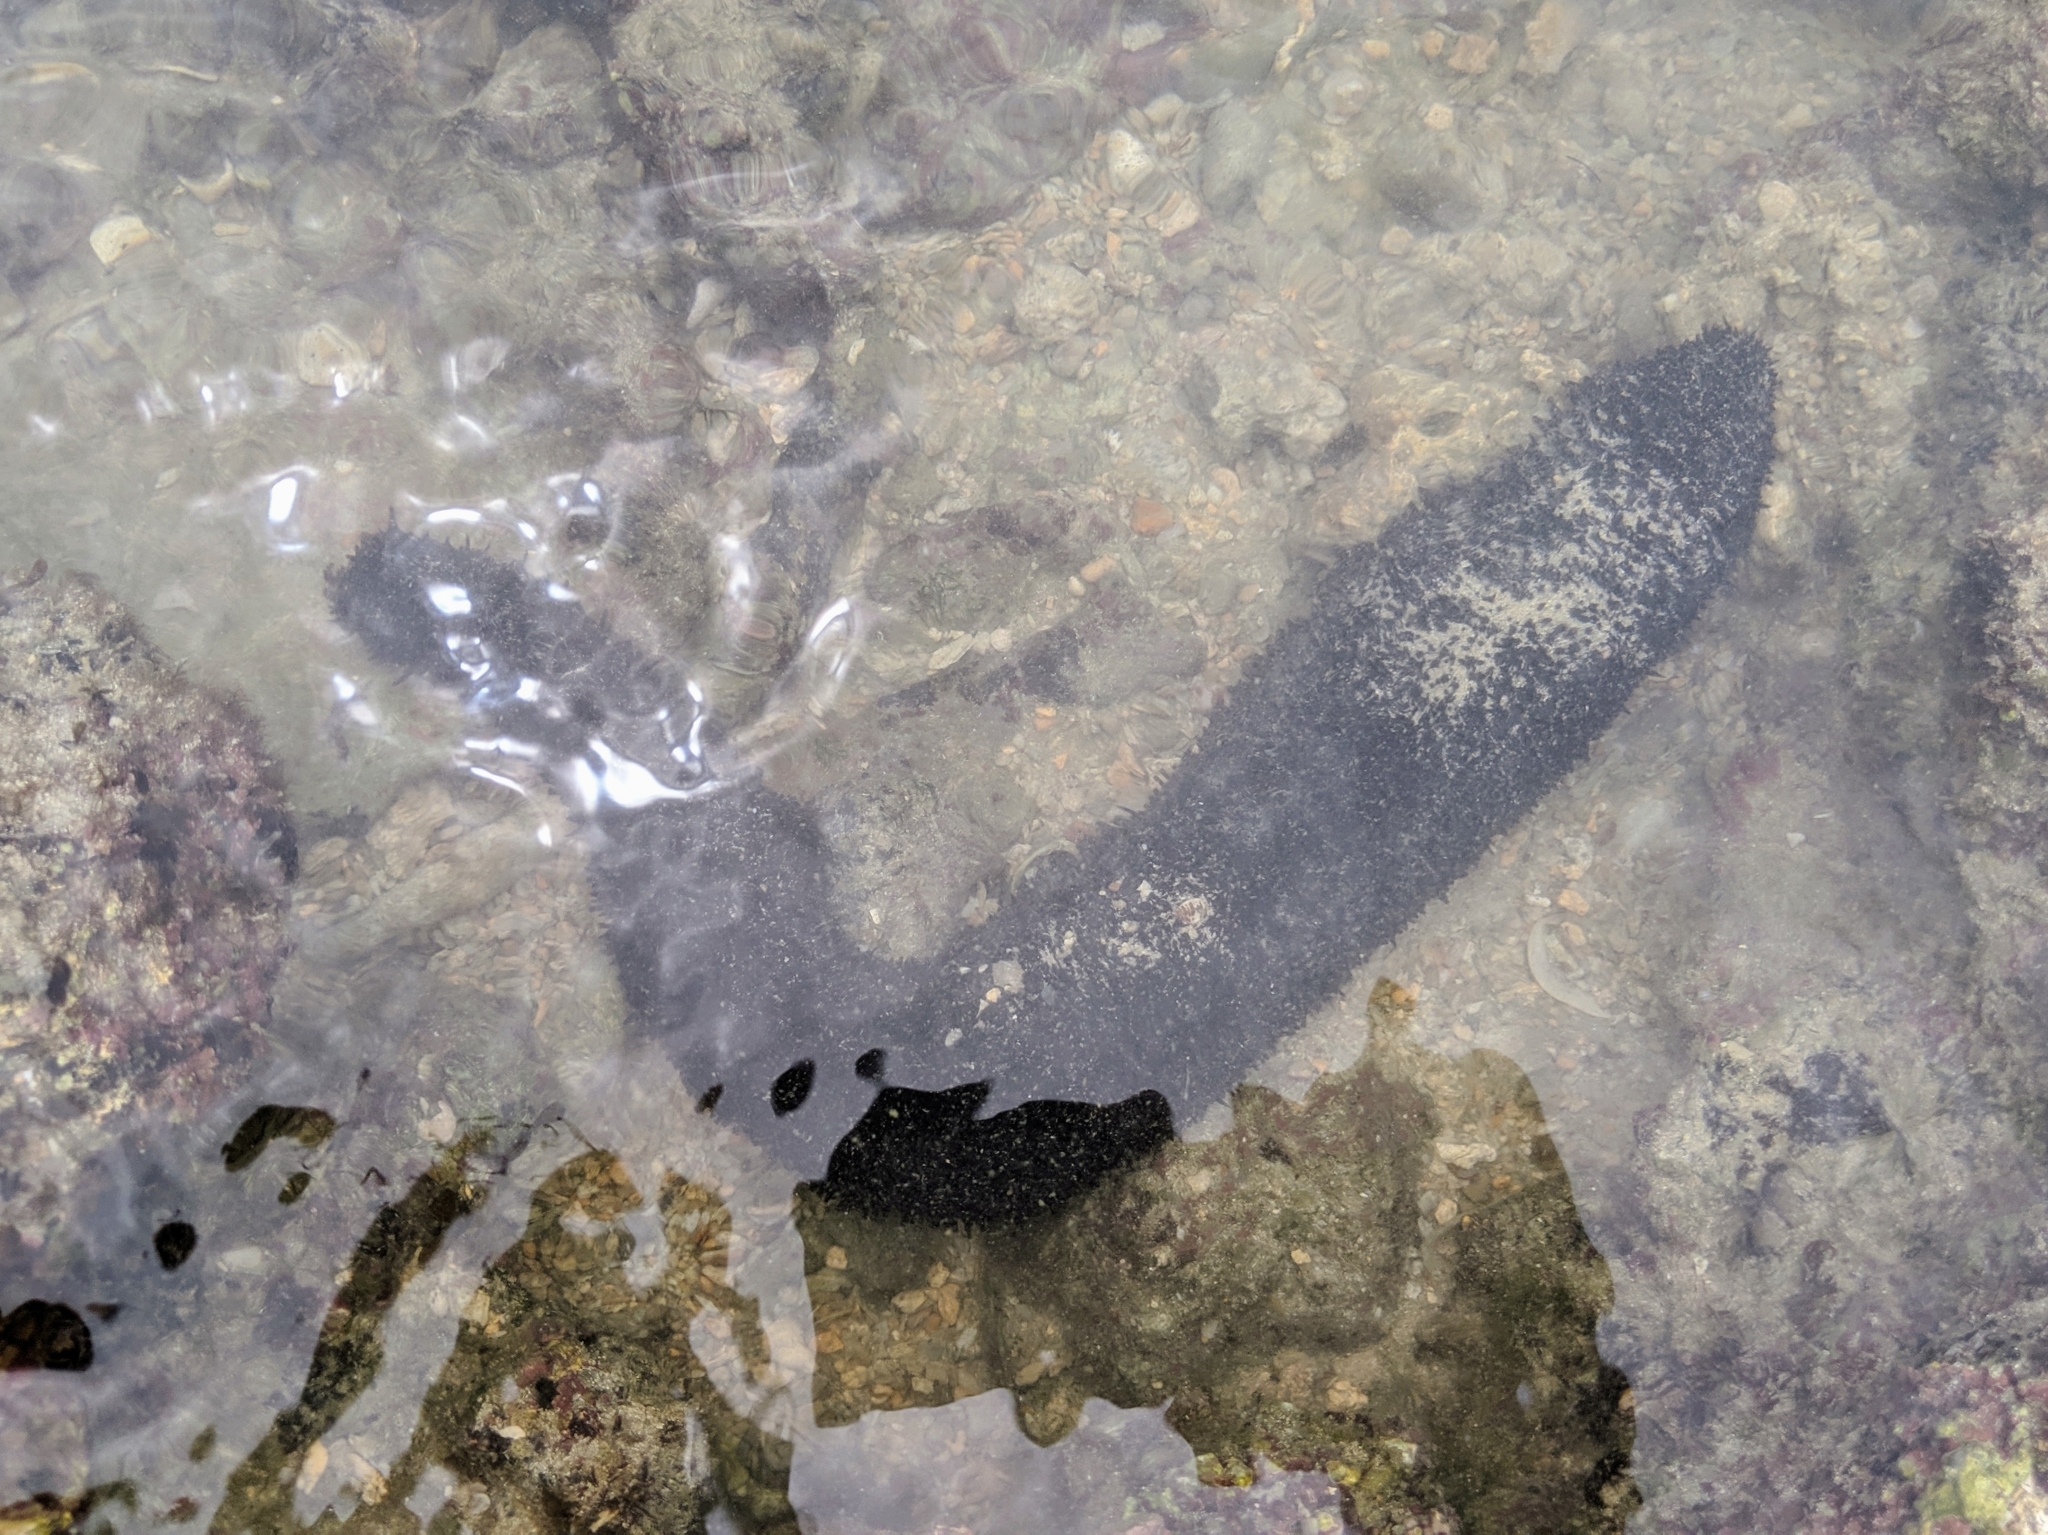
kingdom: Animalia
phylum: Echinodermata
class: Holothuroidea
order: Holothuriida
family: Holothuriidae
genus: Holothuria
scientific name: Holothuria leucospilota
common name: White thread fish
